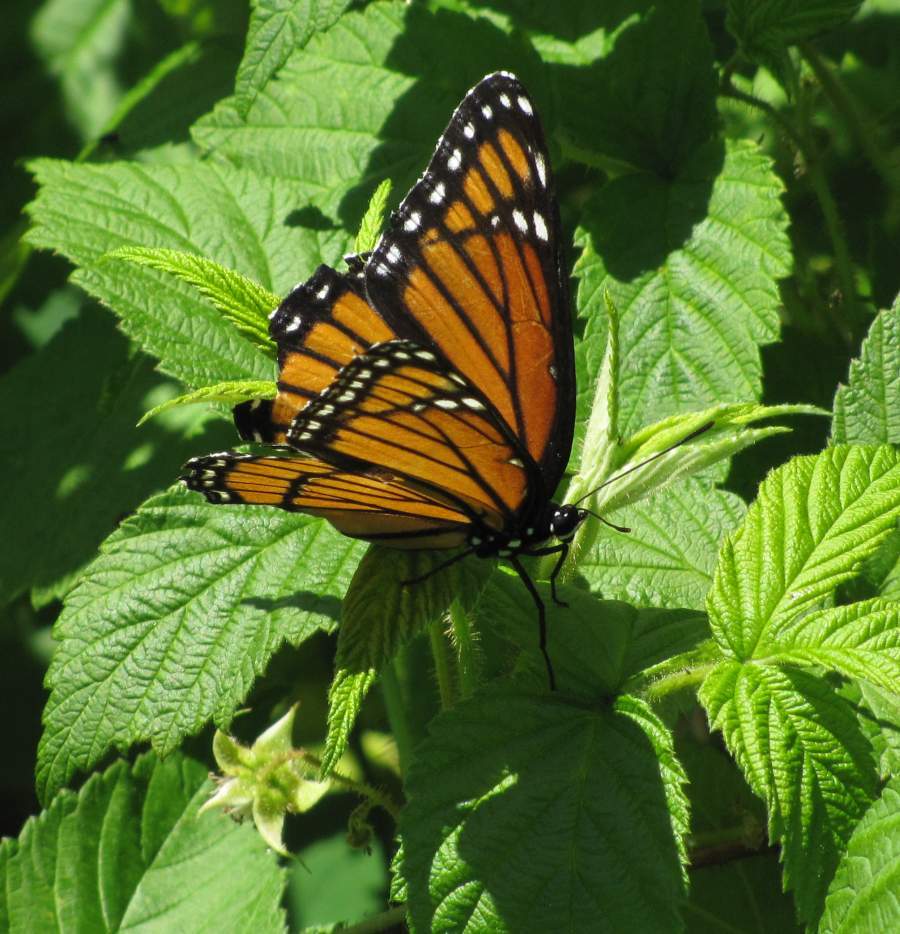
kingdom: Animalia
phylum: Arthropoda
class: Insecta
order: Lepidoptera
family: Nymphalidae
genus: Limenitis
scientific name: Limenitis archippus
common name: Viceroy
